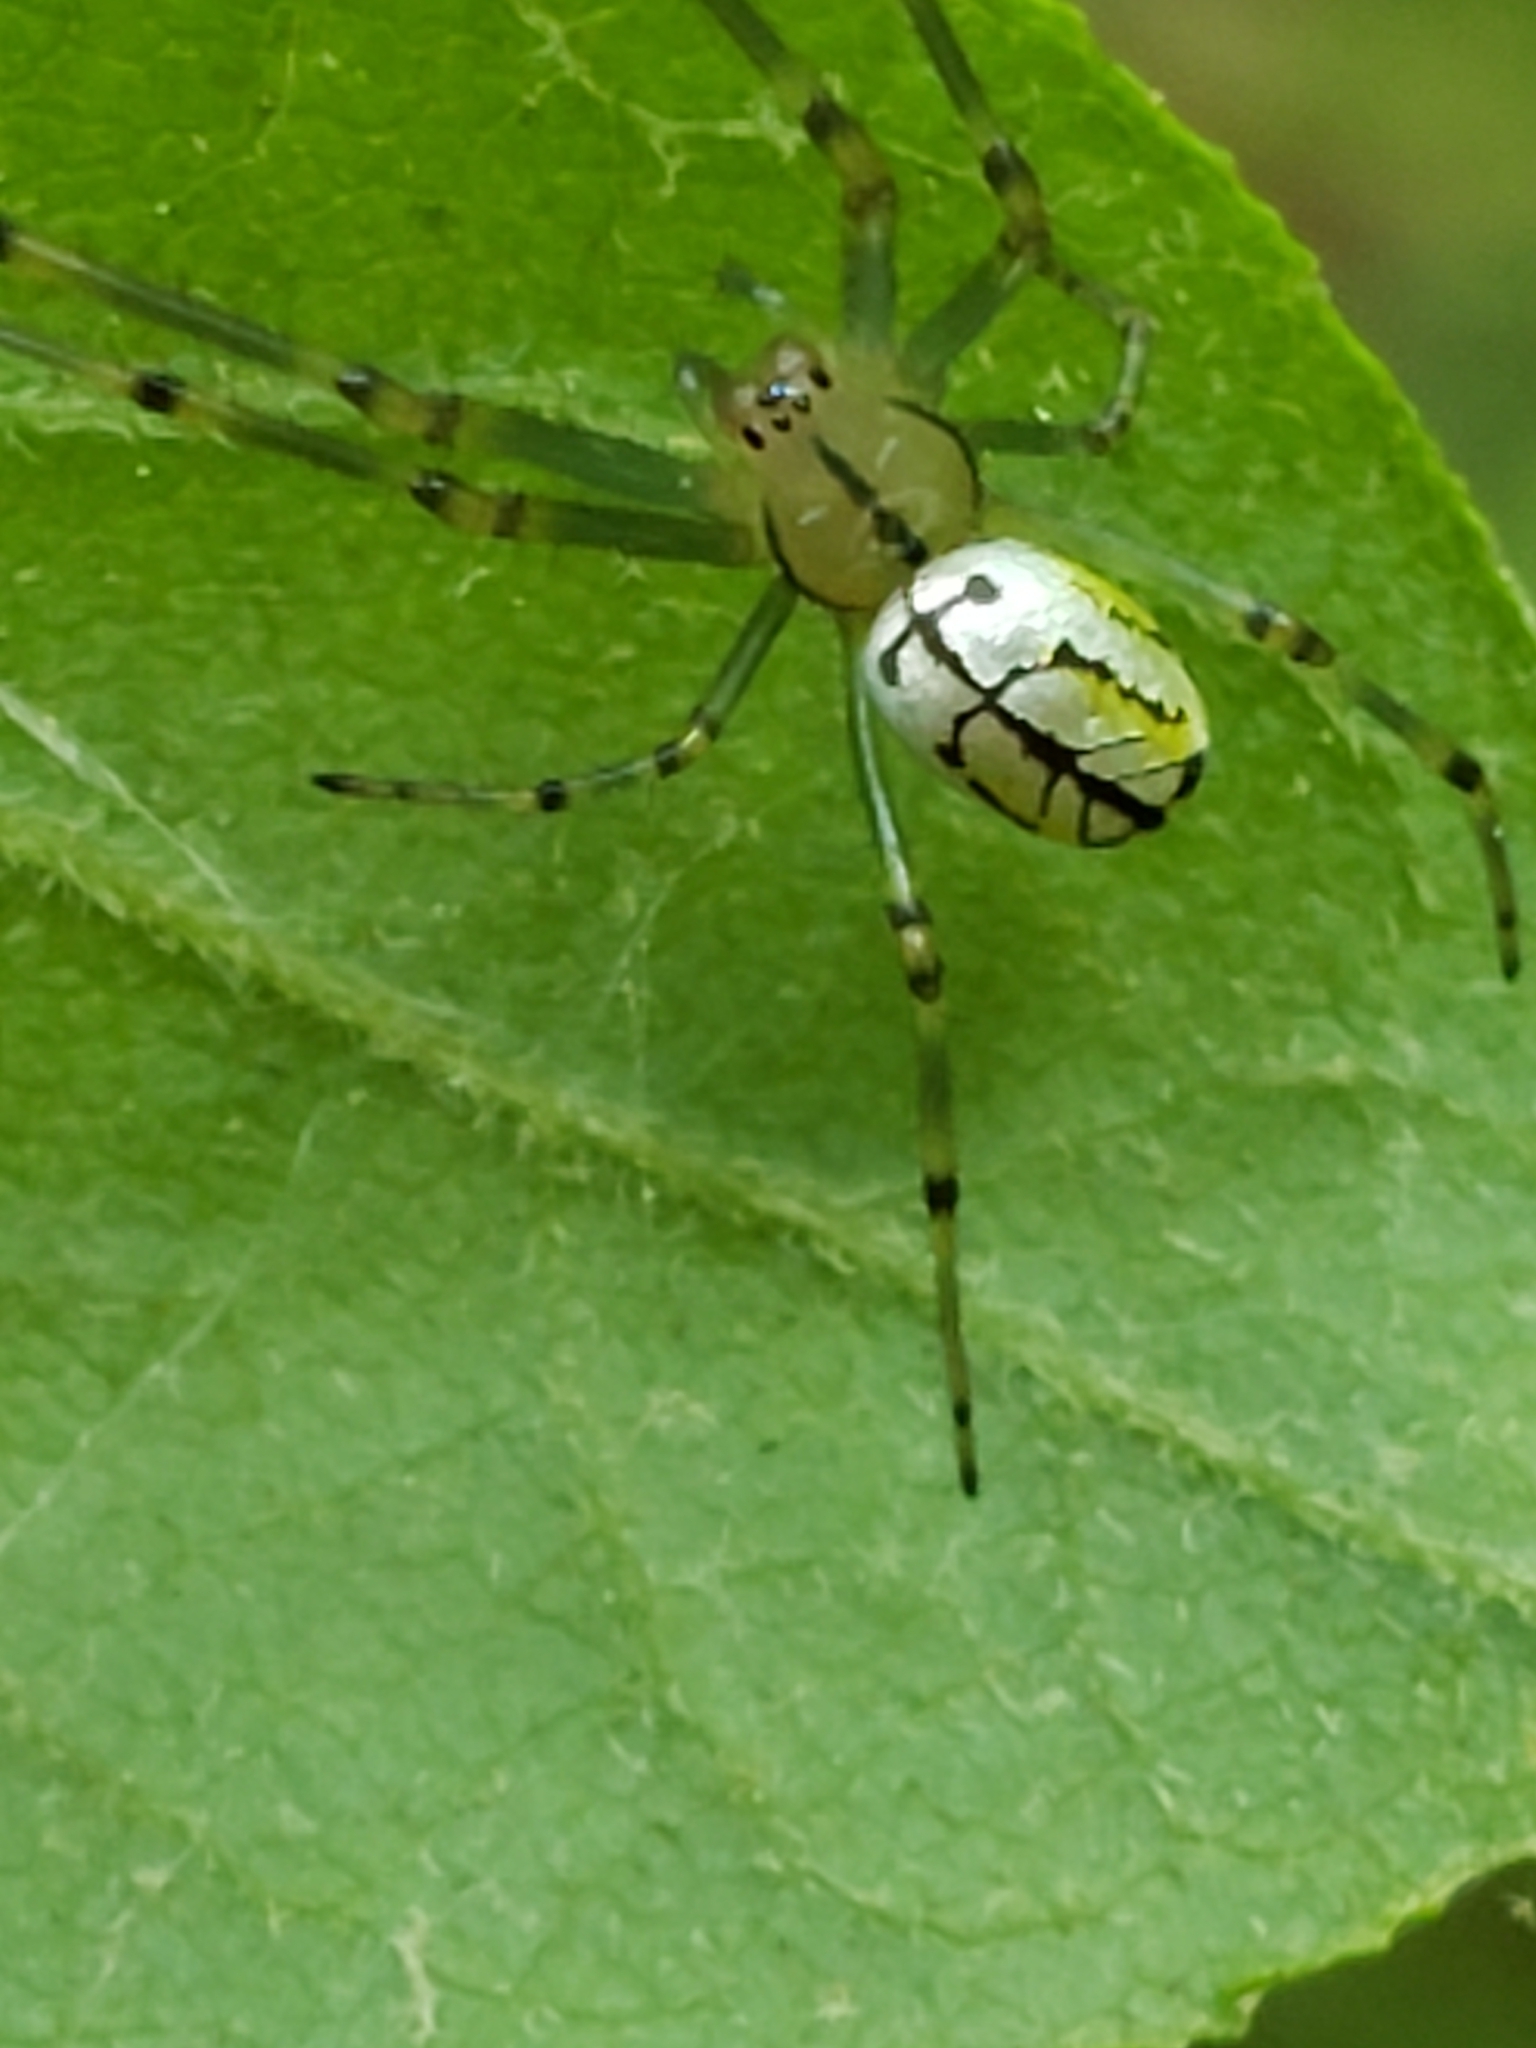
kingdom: Animalia
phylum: Arthropoda
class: Arachnida
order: Araneae
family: Tetragnathidae
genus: Leucauge
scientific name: Leucauge venusta
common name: Longjawed orb weavers
